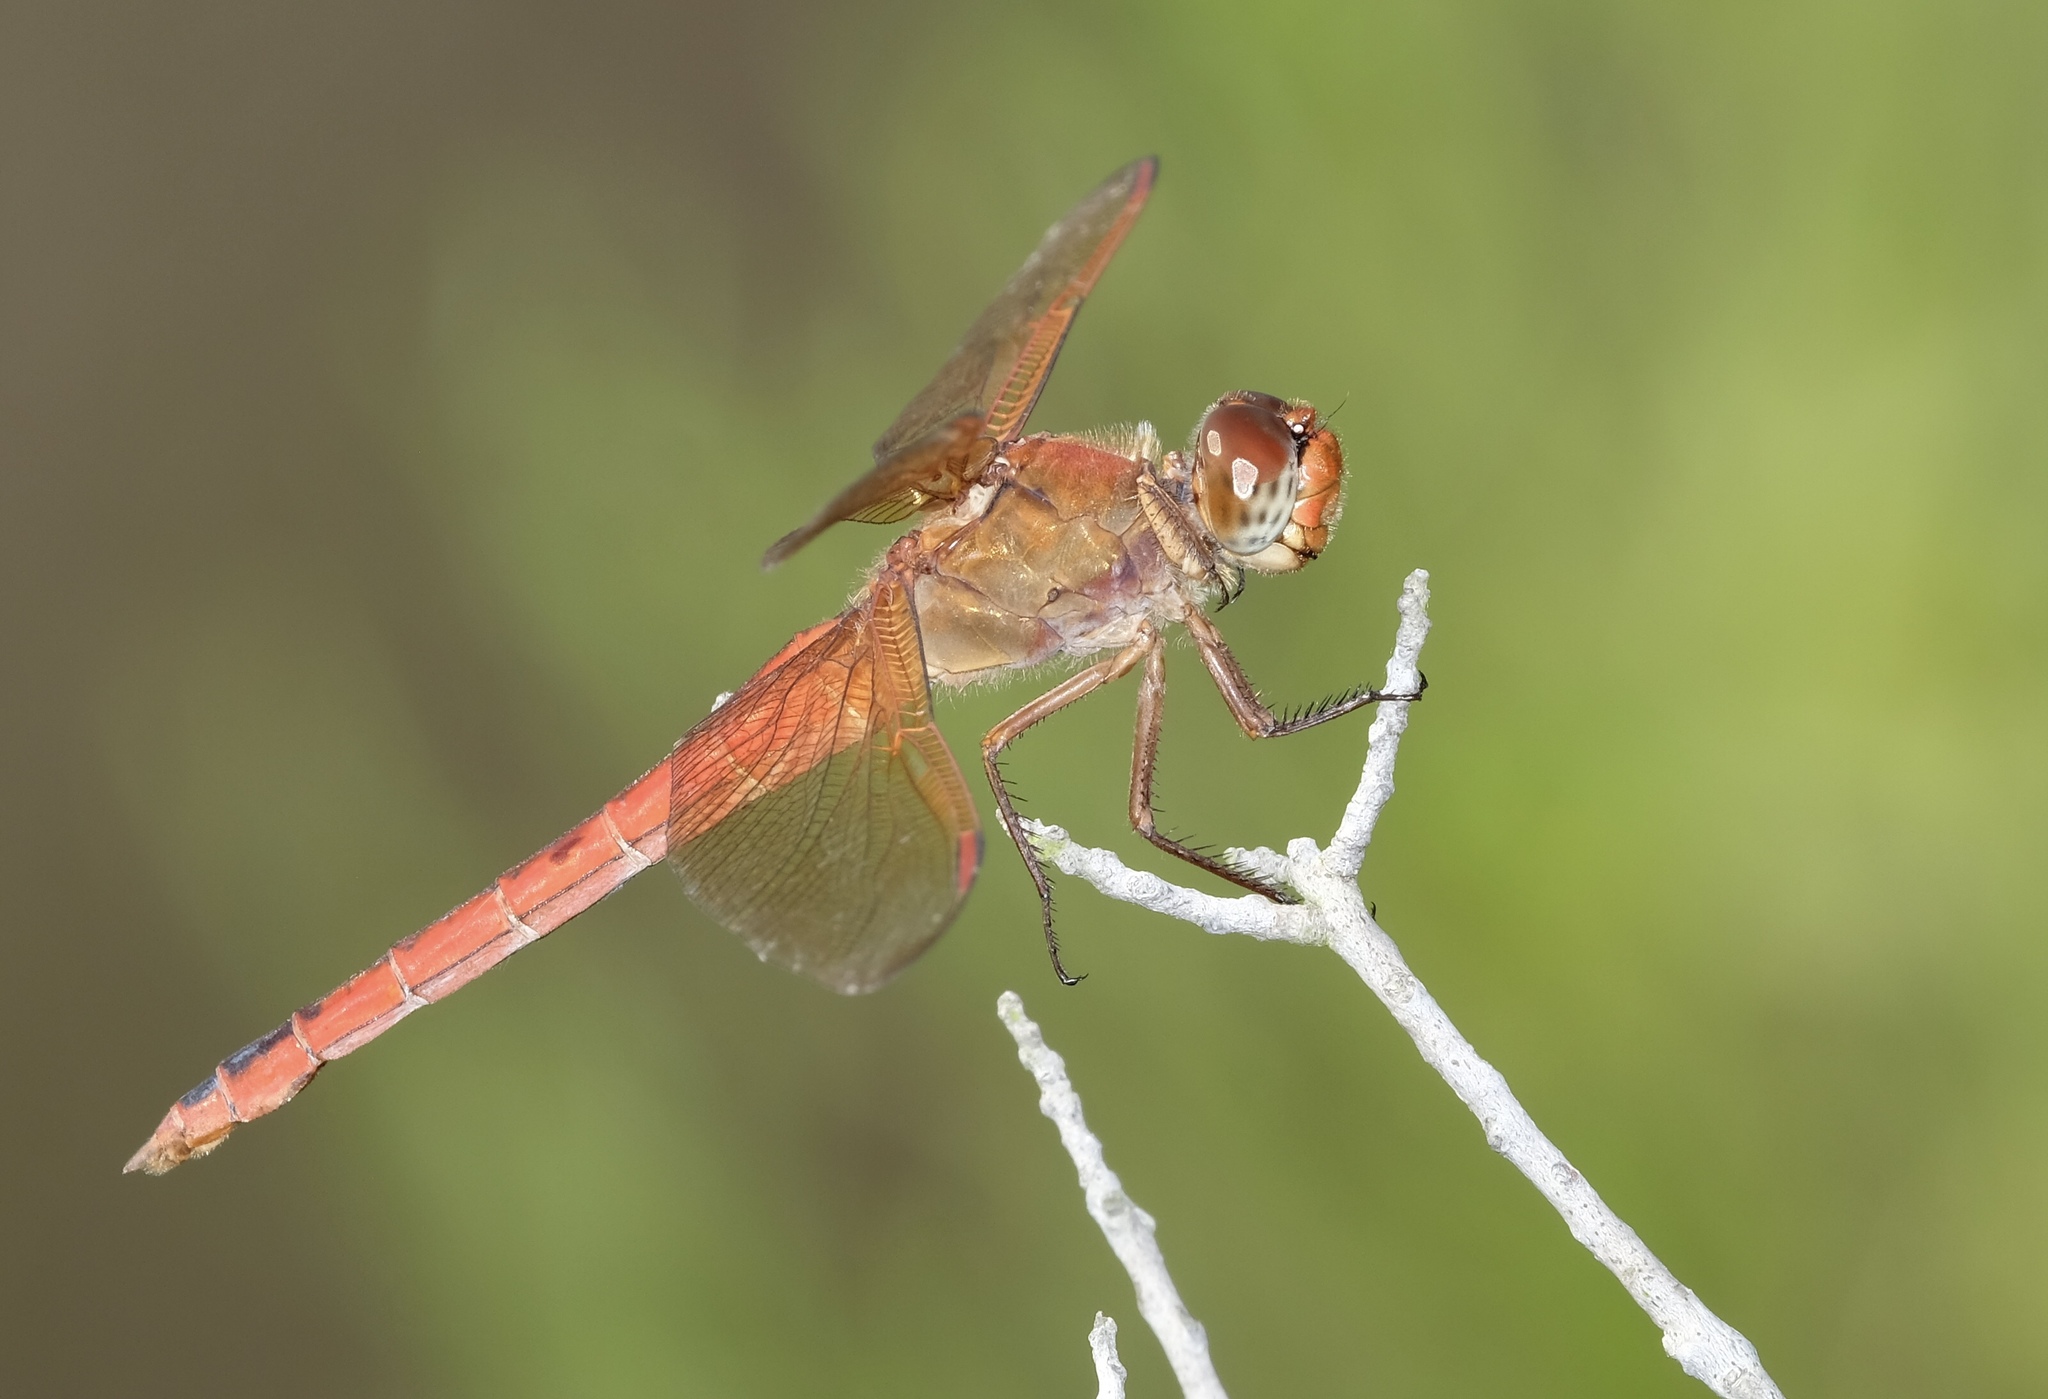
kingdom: Animalia
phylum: Arthropoda
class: Insecta
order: Odonata
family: Libellulidae
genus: Libellula
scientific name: Libellula needhami
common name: Needham's skimmer
